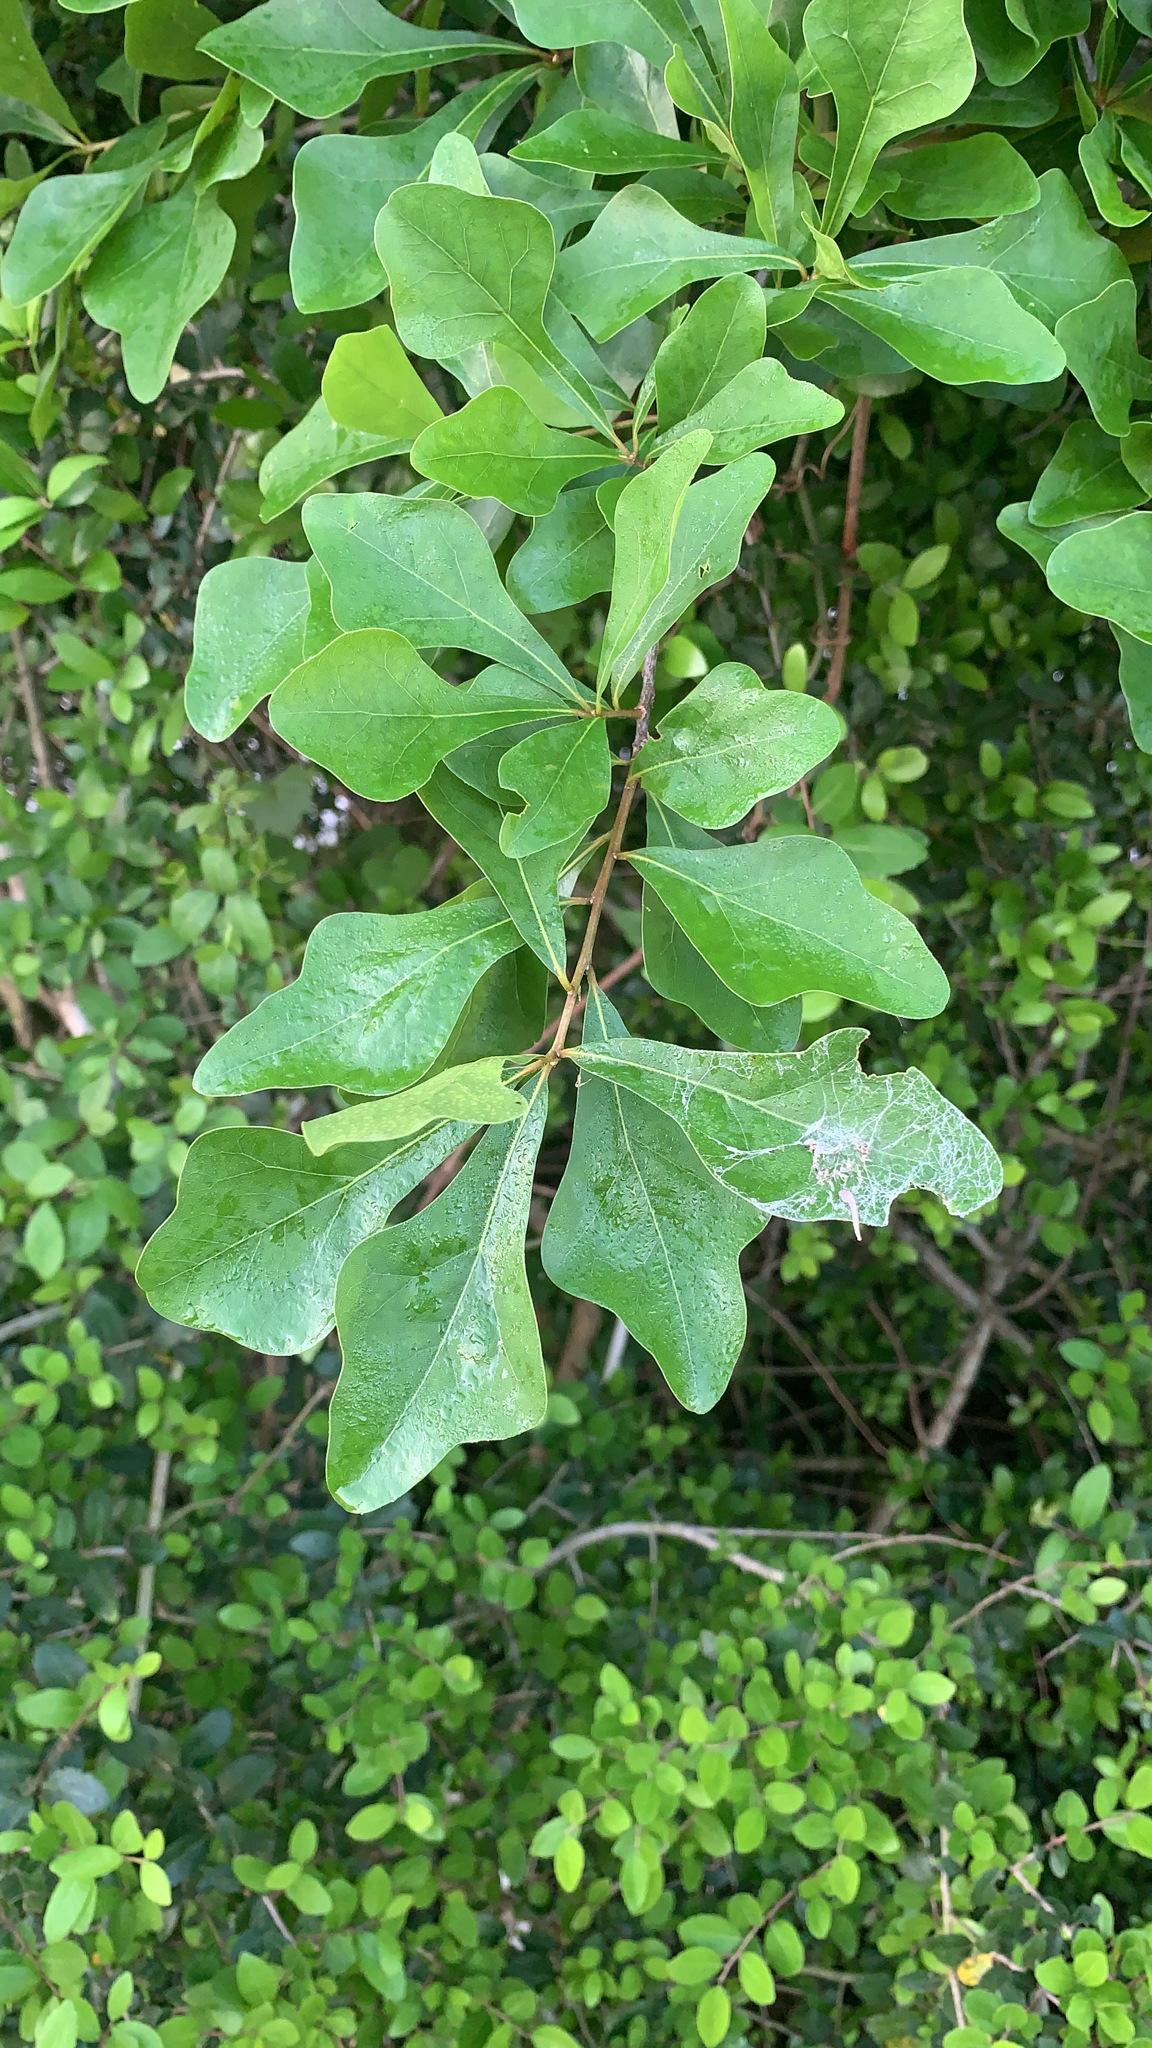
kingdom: Plantae
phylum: Tracheophyta
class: Magnoliopsida
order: Fagales
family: Fagaceae
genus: Quercus
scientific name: Quercus nigra
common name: Water oak
